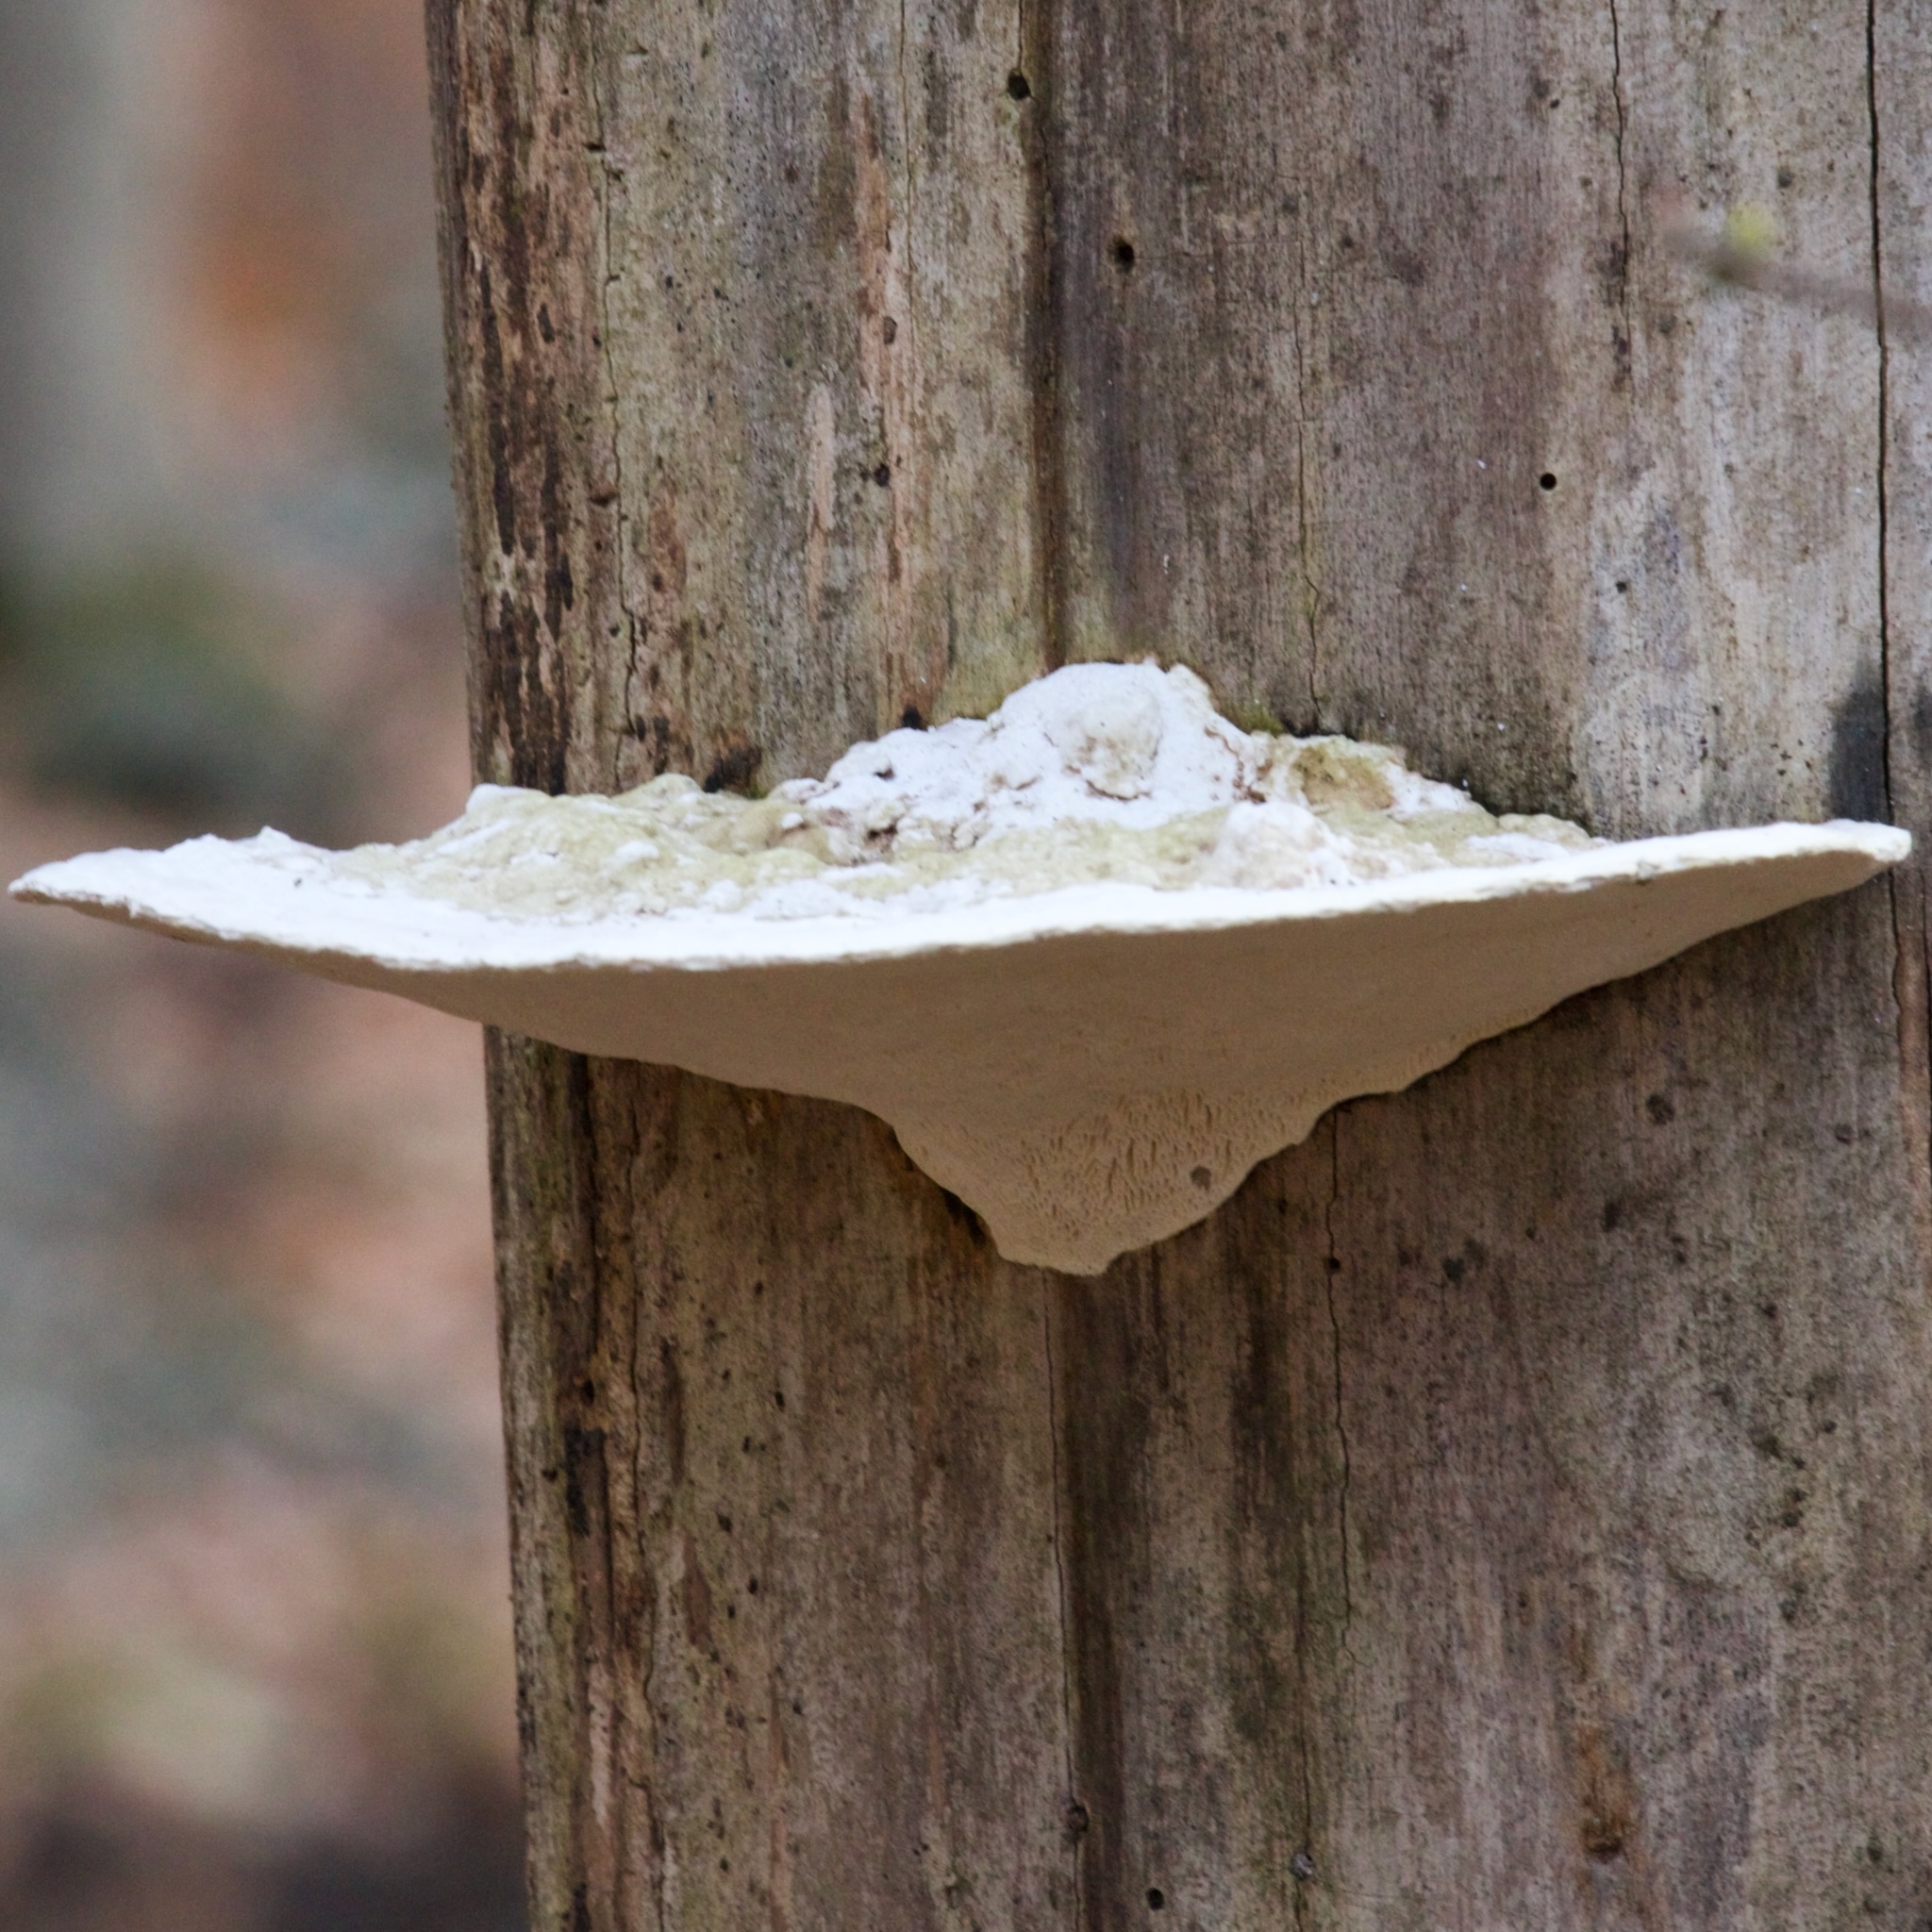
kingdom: Fungi
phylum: Basidiomycota
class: Agaricomycetes
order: Polyporales
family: Polyporaceae
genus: Trametes
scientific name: Trametes gibbosa
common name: Lumpy bracket
